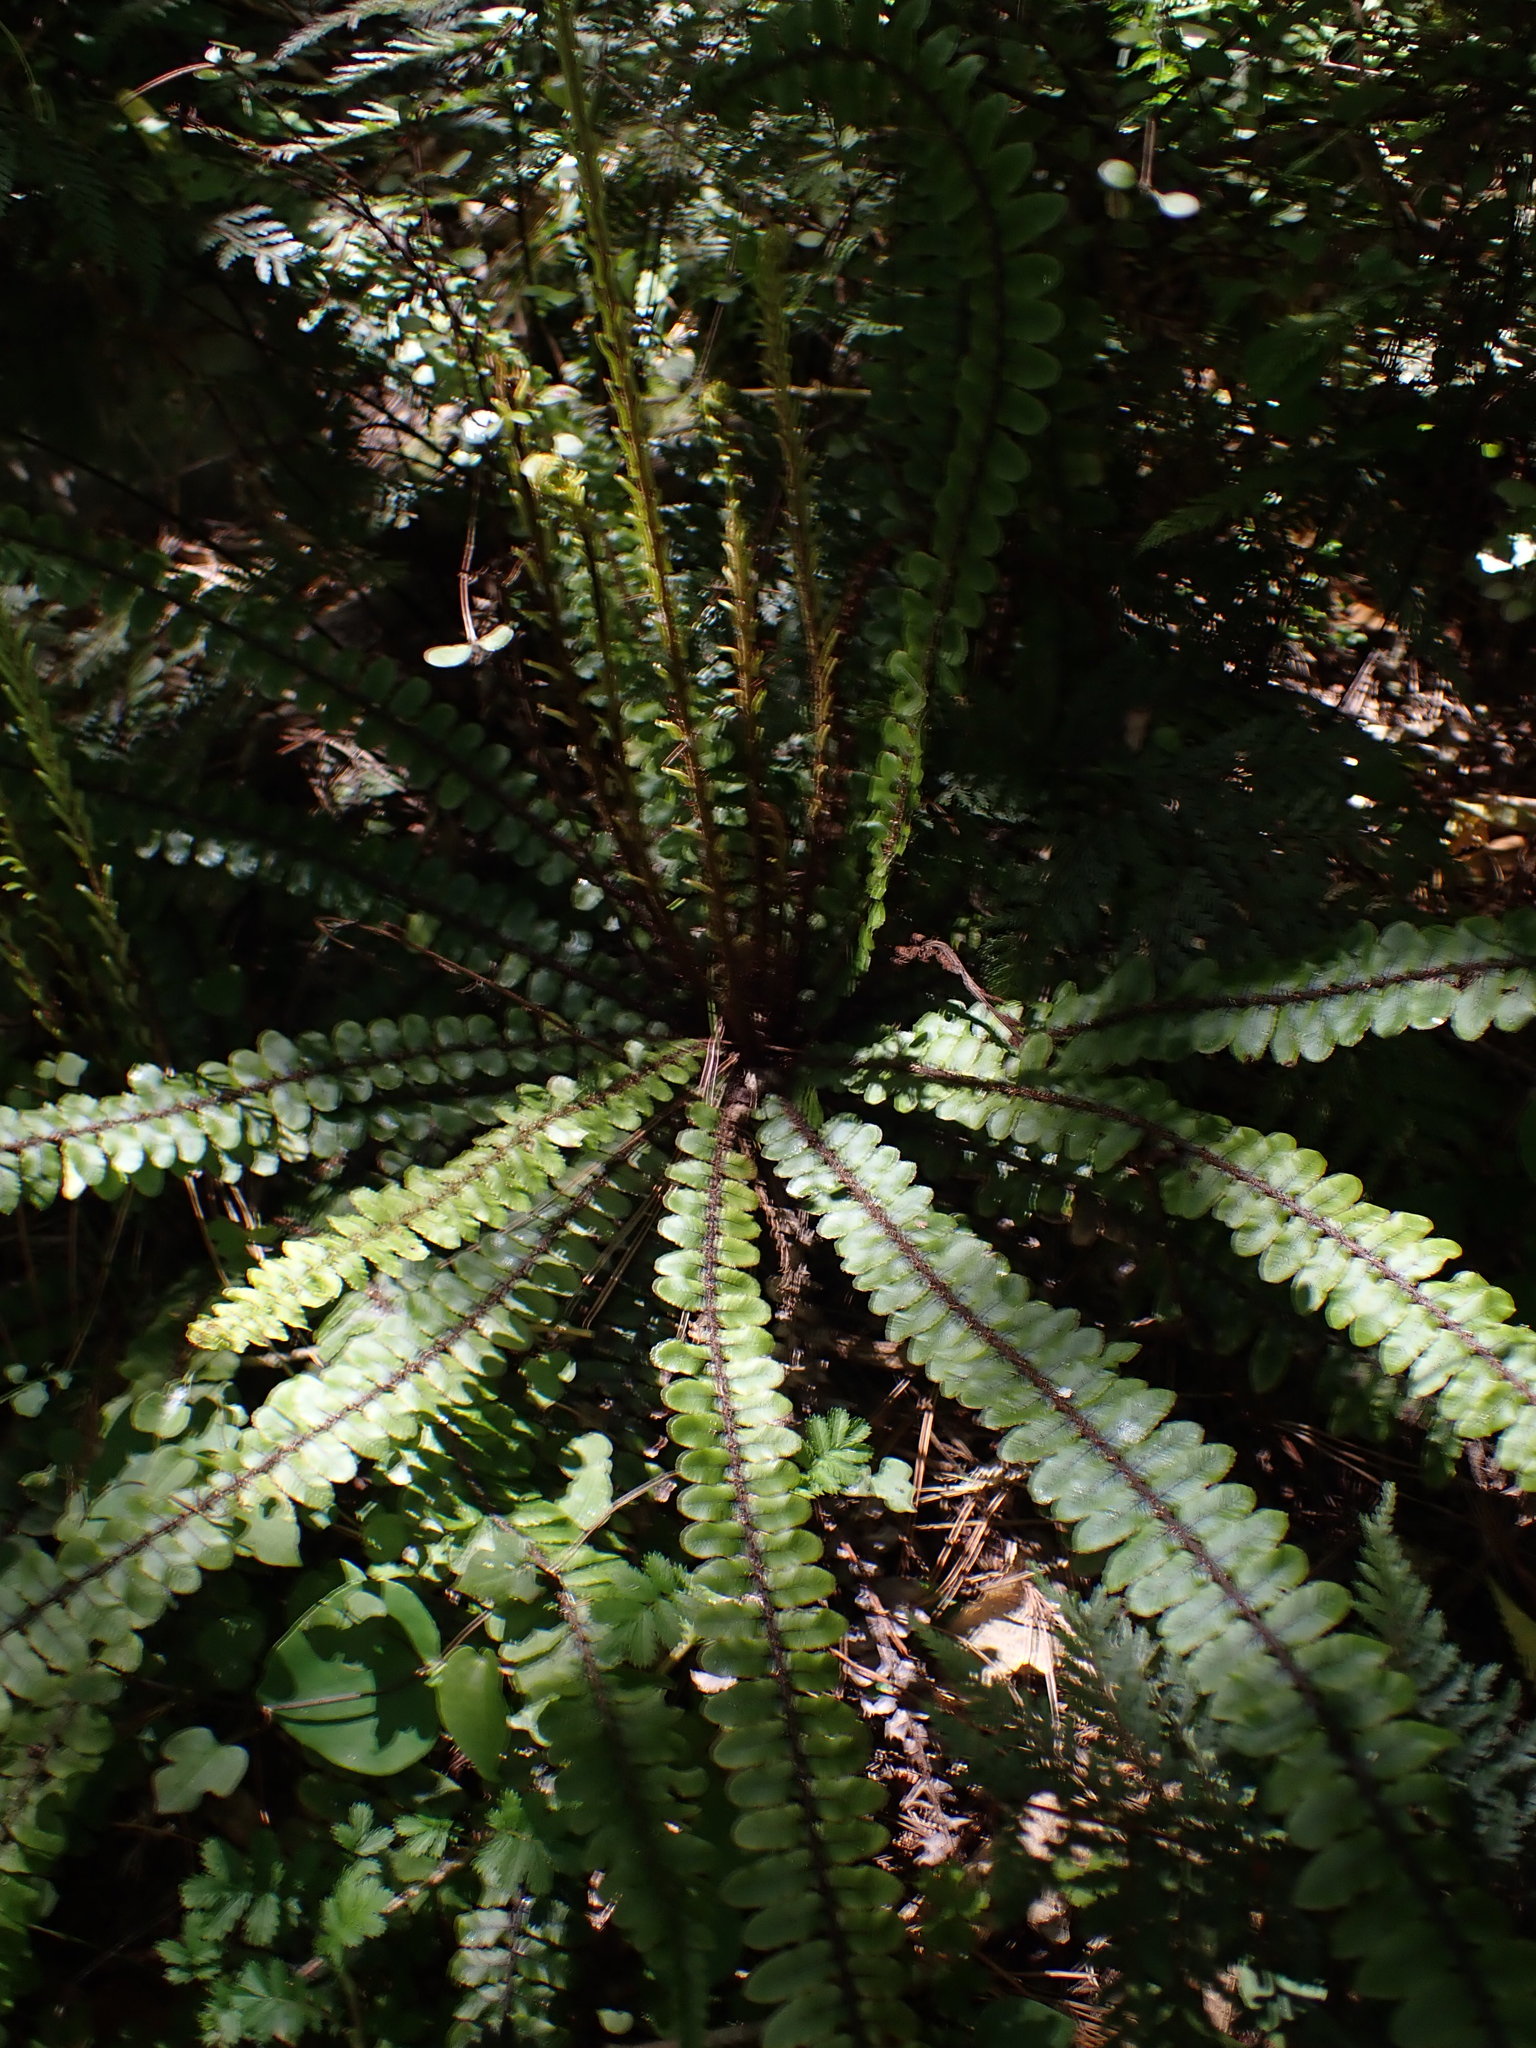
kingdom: Plantae
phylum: Tracheophyta
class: Polypodiopsida
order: Polypodiales
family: Blechnaceae
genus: Cranfillia
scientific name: Cranfillia fluviatilis
